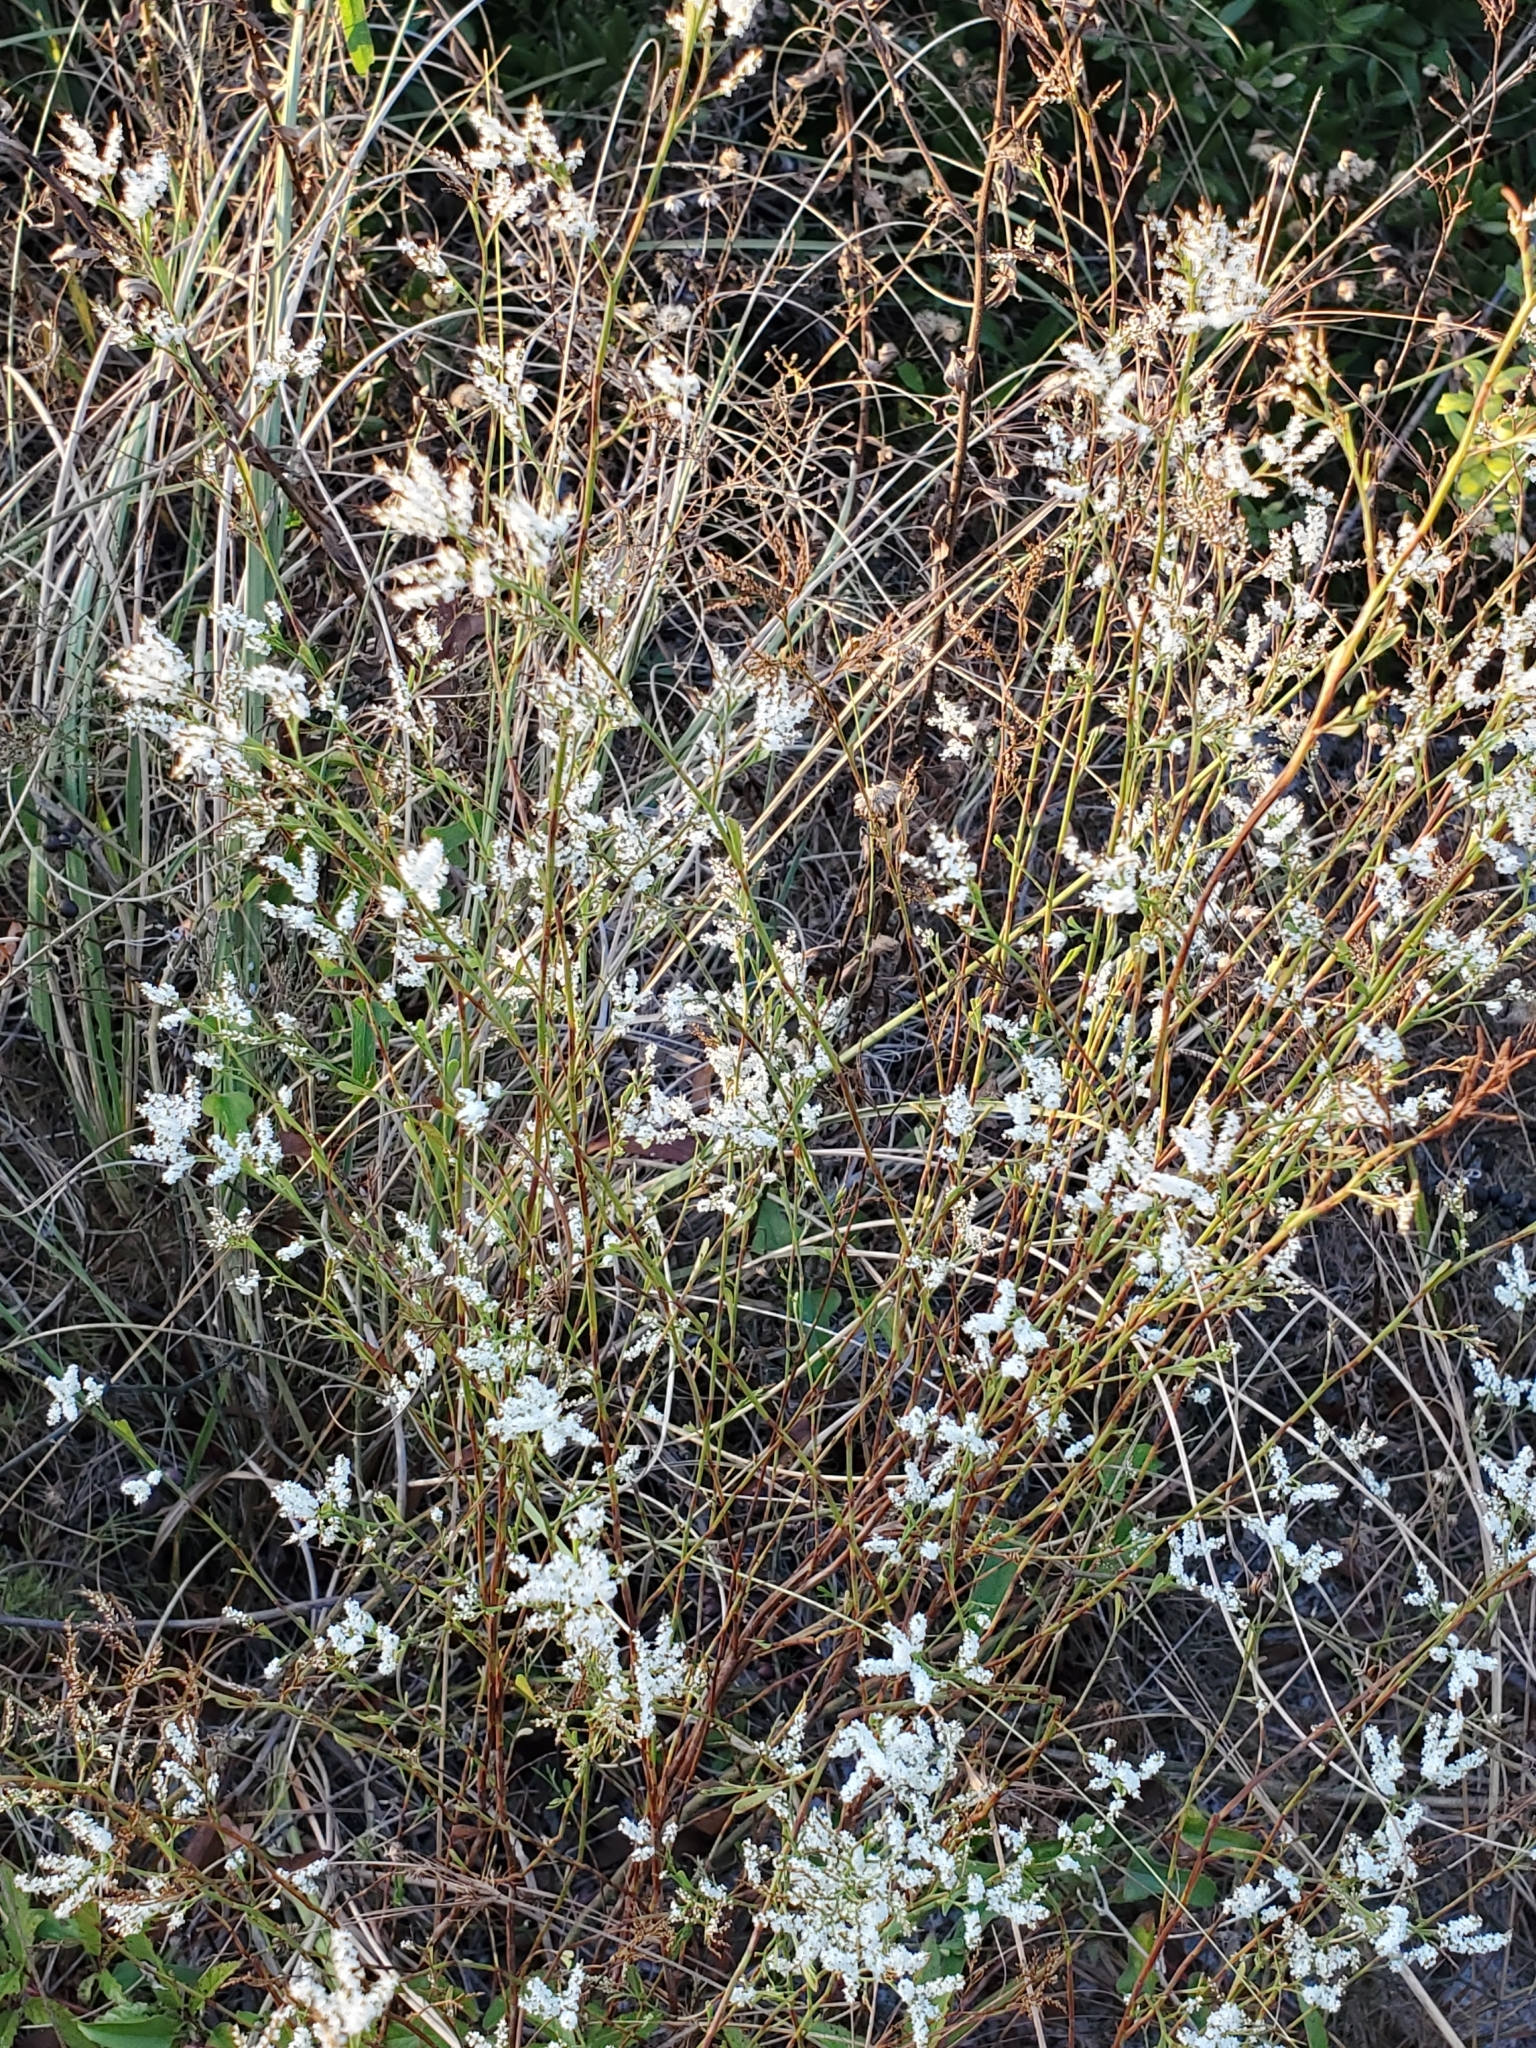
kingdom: Plantae
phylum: Tracheophyta
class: Magnoliopsida
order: Caryophyllales
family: Polygonaceae
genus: Polygonella
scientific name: Polygonella polygama
